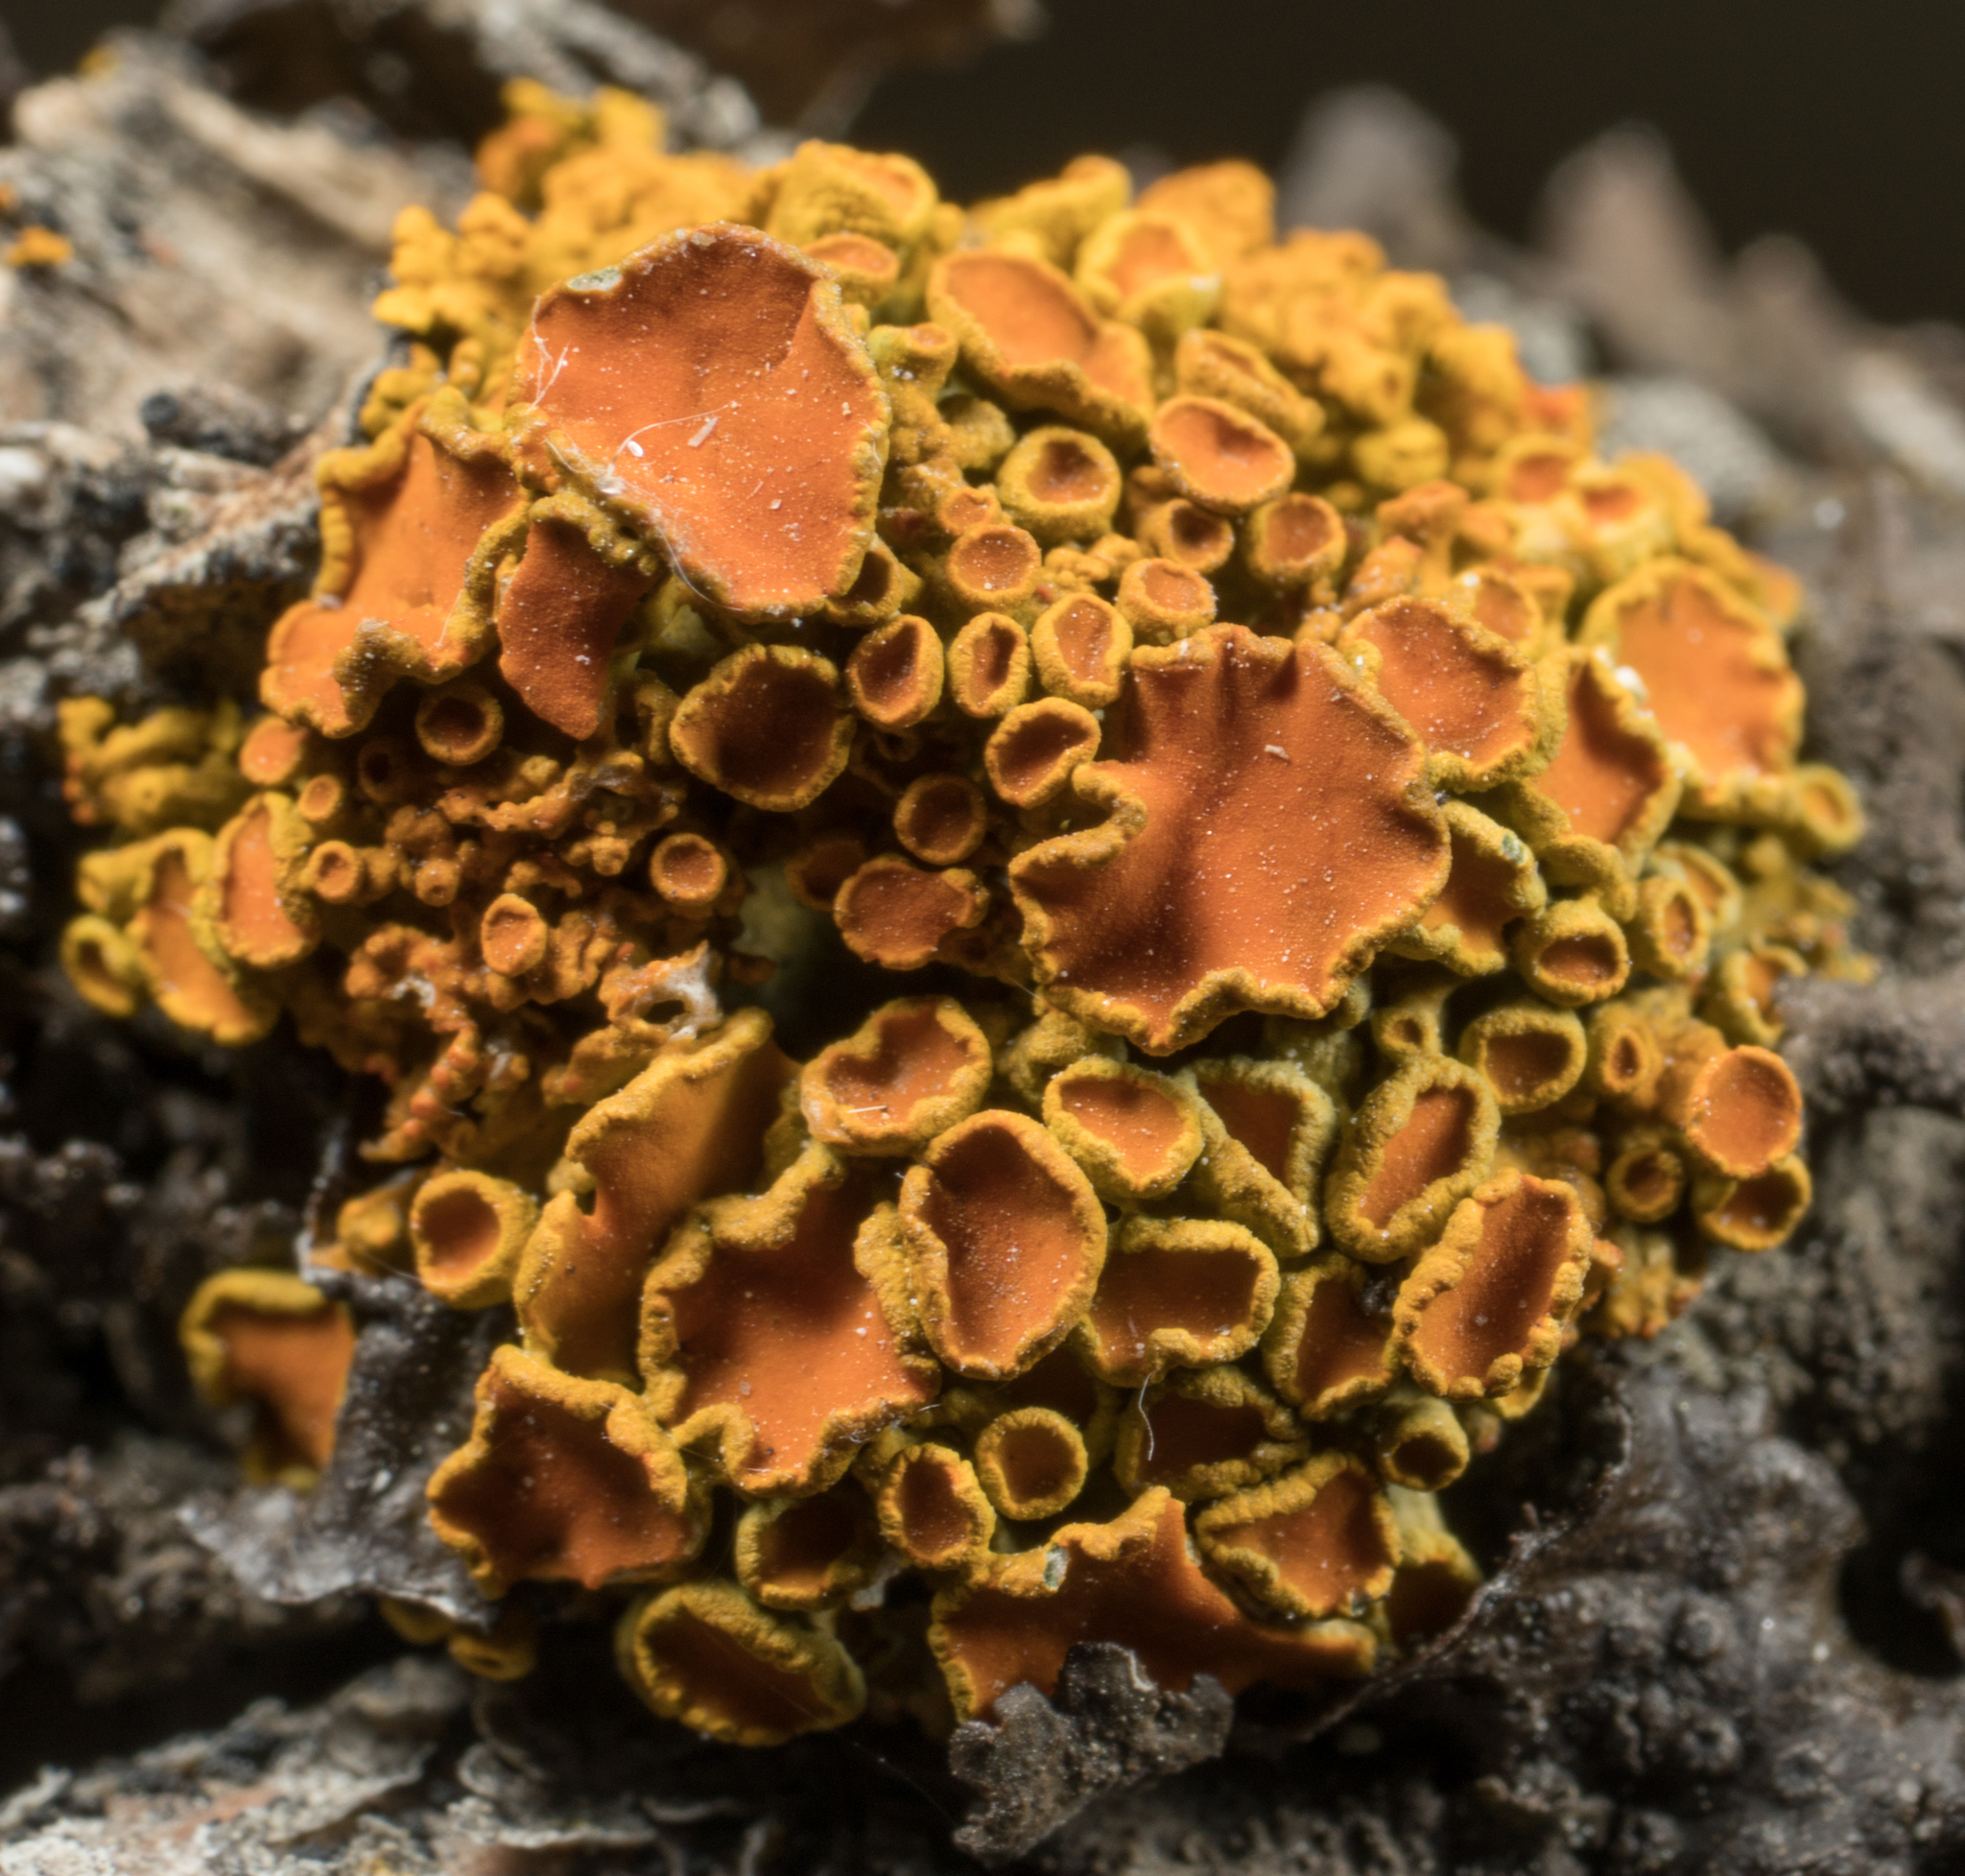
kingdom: Fungi
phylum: Ascomycota
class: Lecanoromycetes
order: Teloschistales
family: Teloschistaceae
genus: Polycauliona
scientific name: Polycauliona polycarpa
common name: Pin-cushion sunburst lichen
